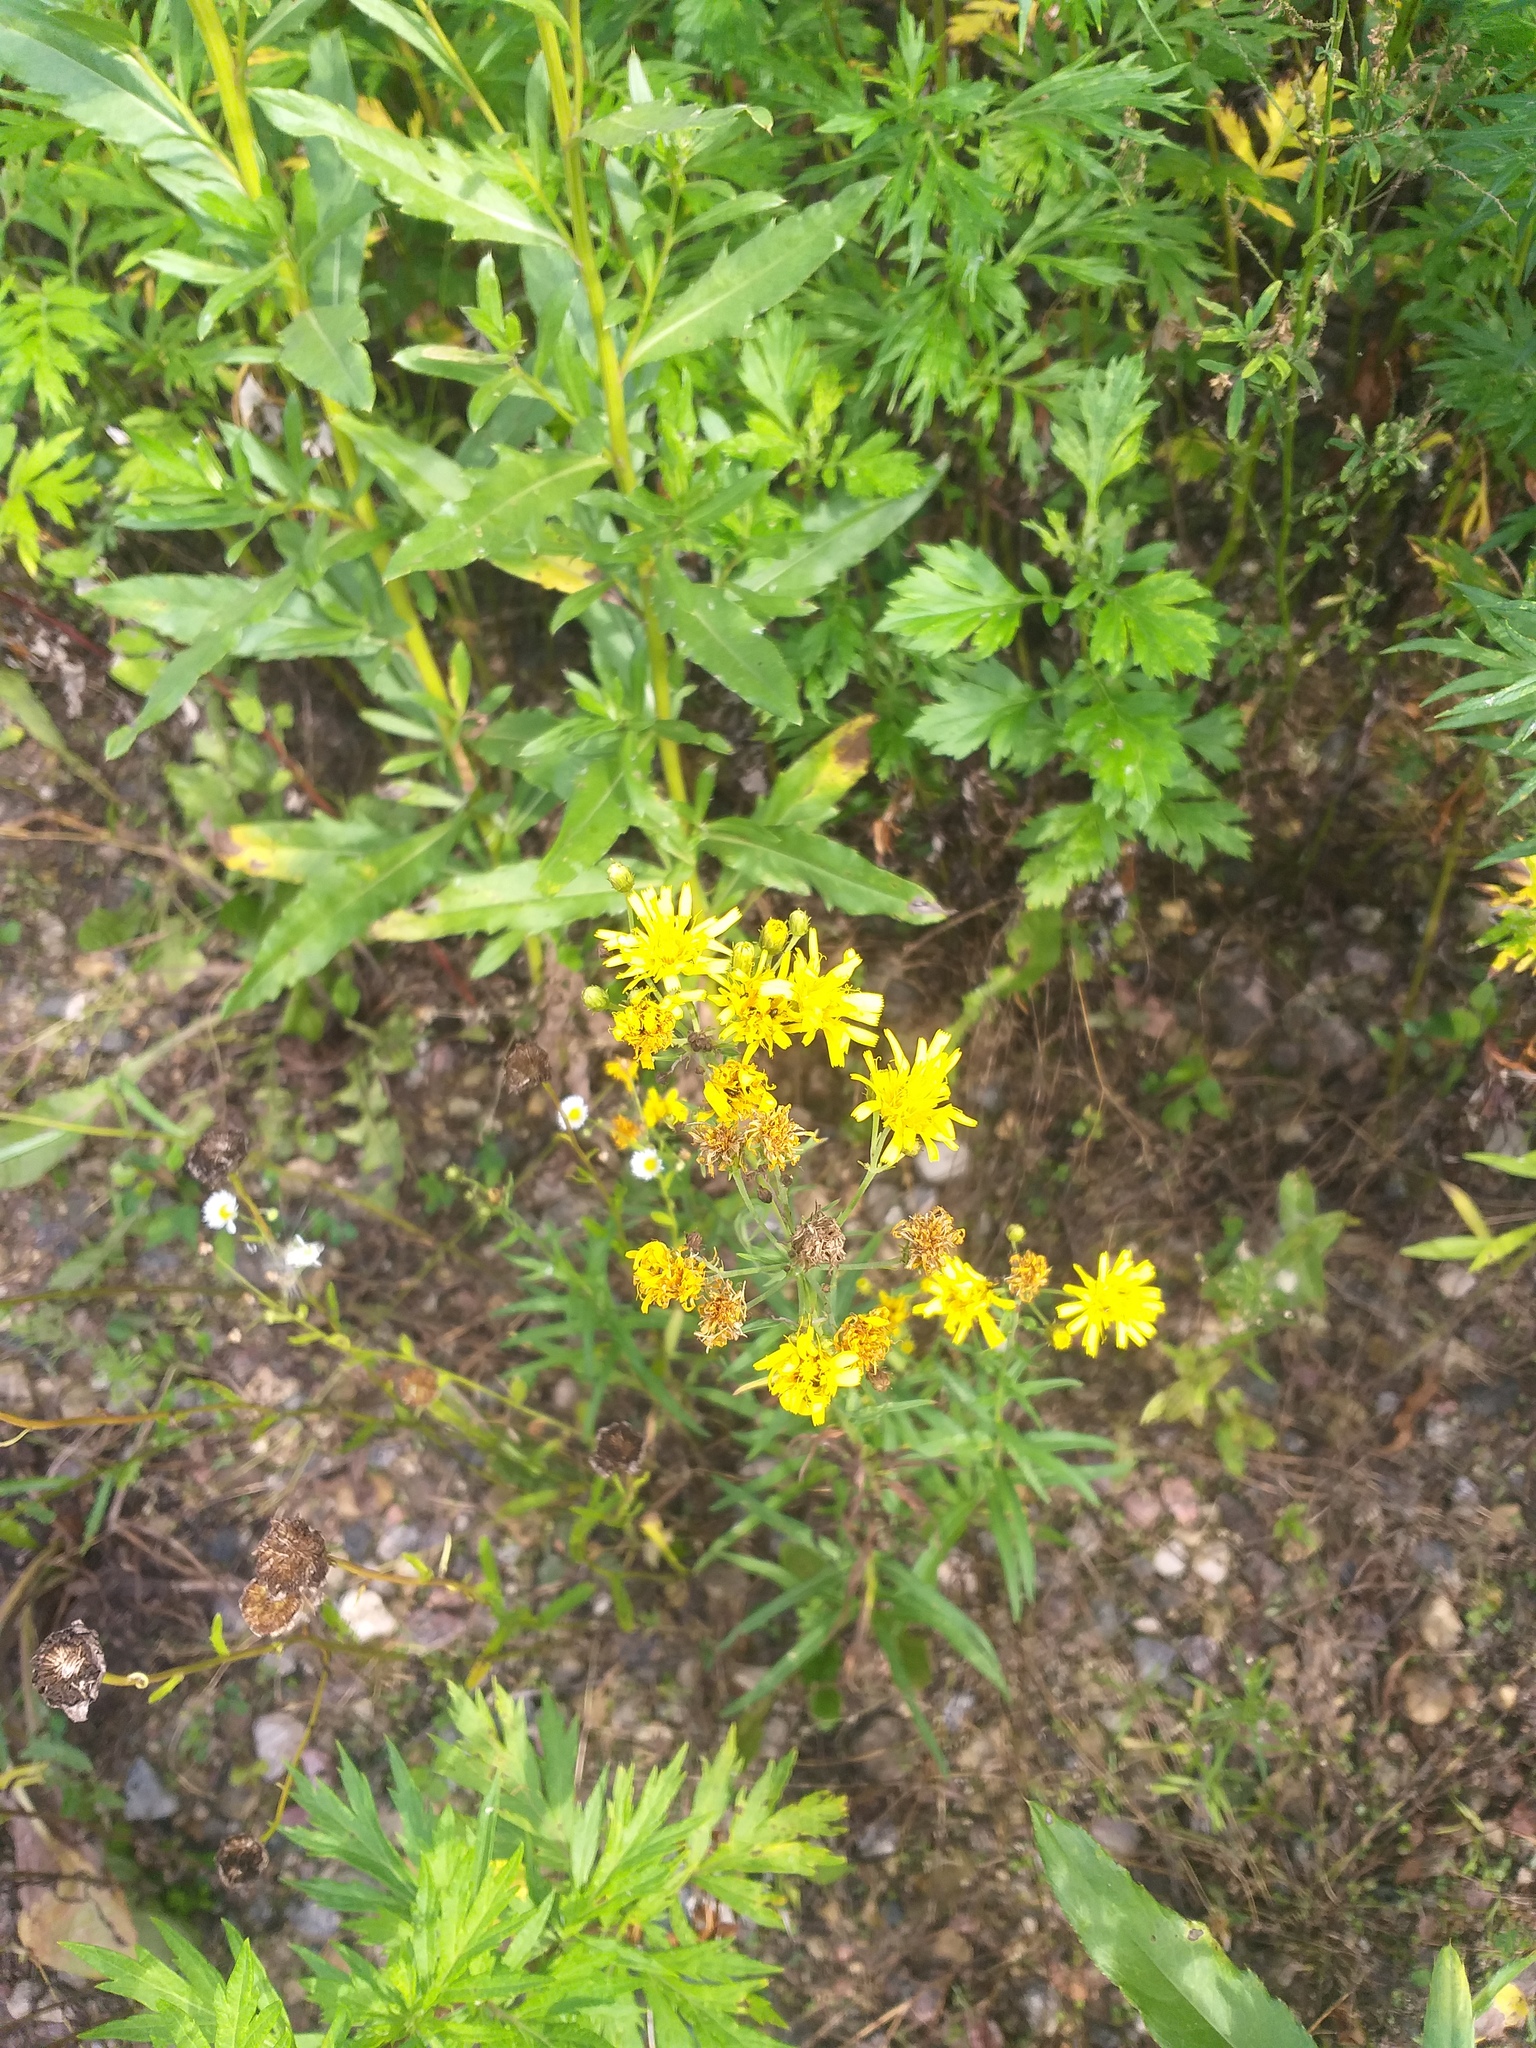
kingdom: Plantae
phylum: Tracheophyta
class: Magnoliopsida
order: Asterales
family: Asteraceae
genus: Hieracium
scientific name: Hieracium umbellatum
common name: Northern hawkweed
